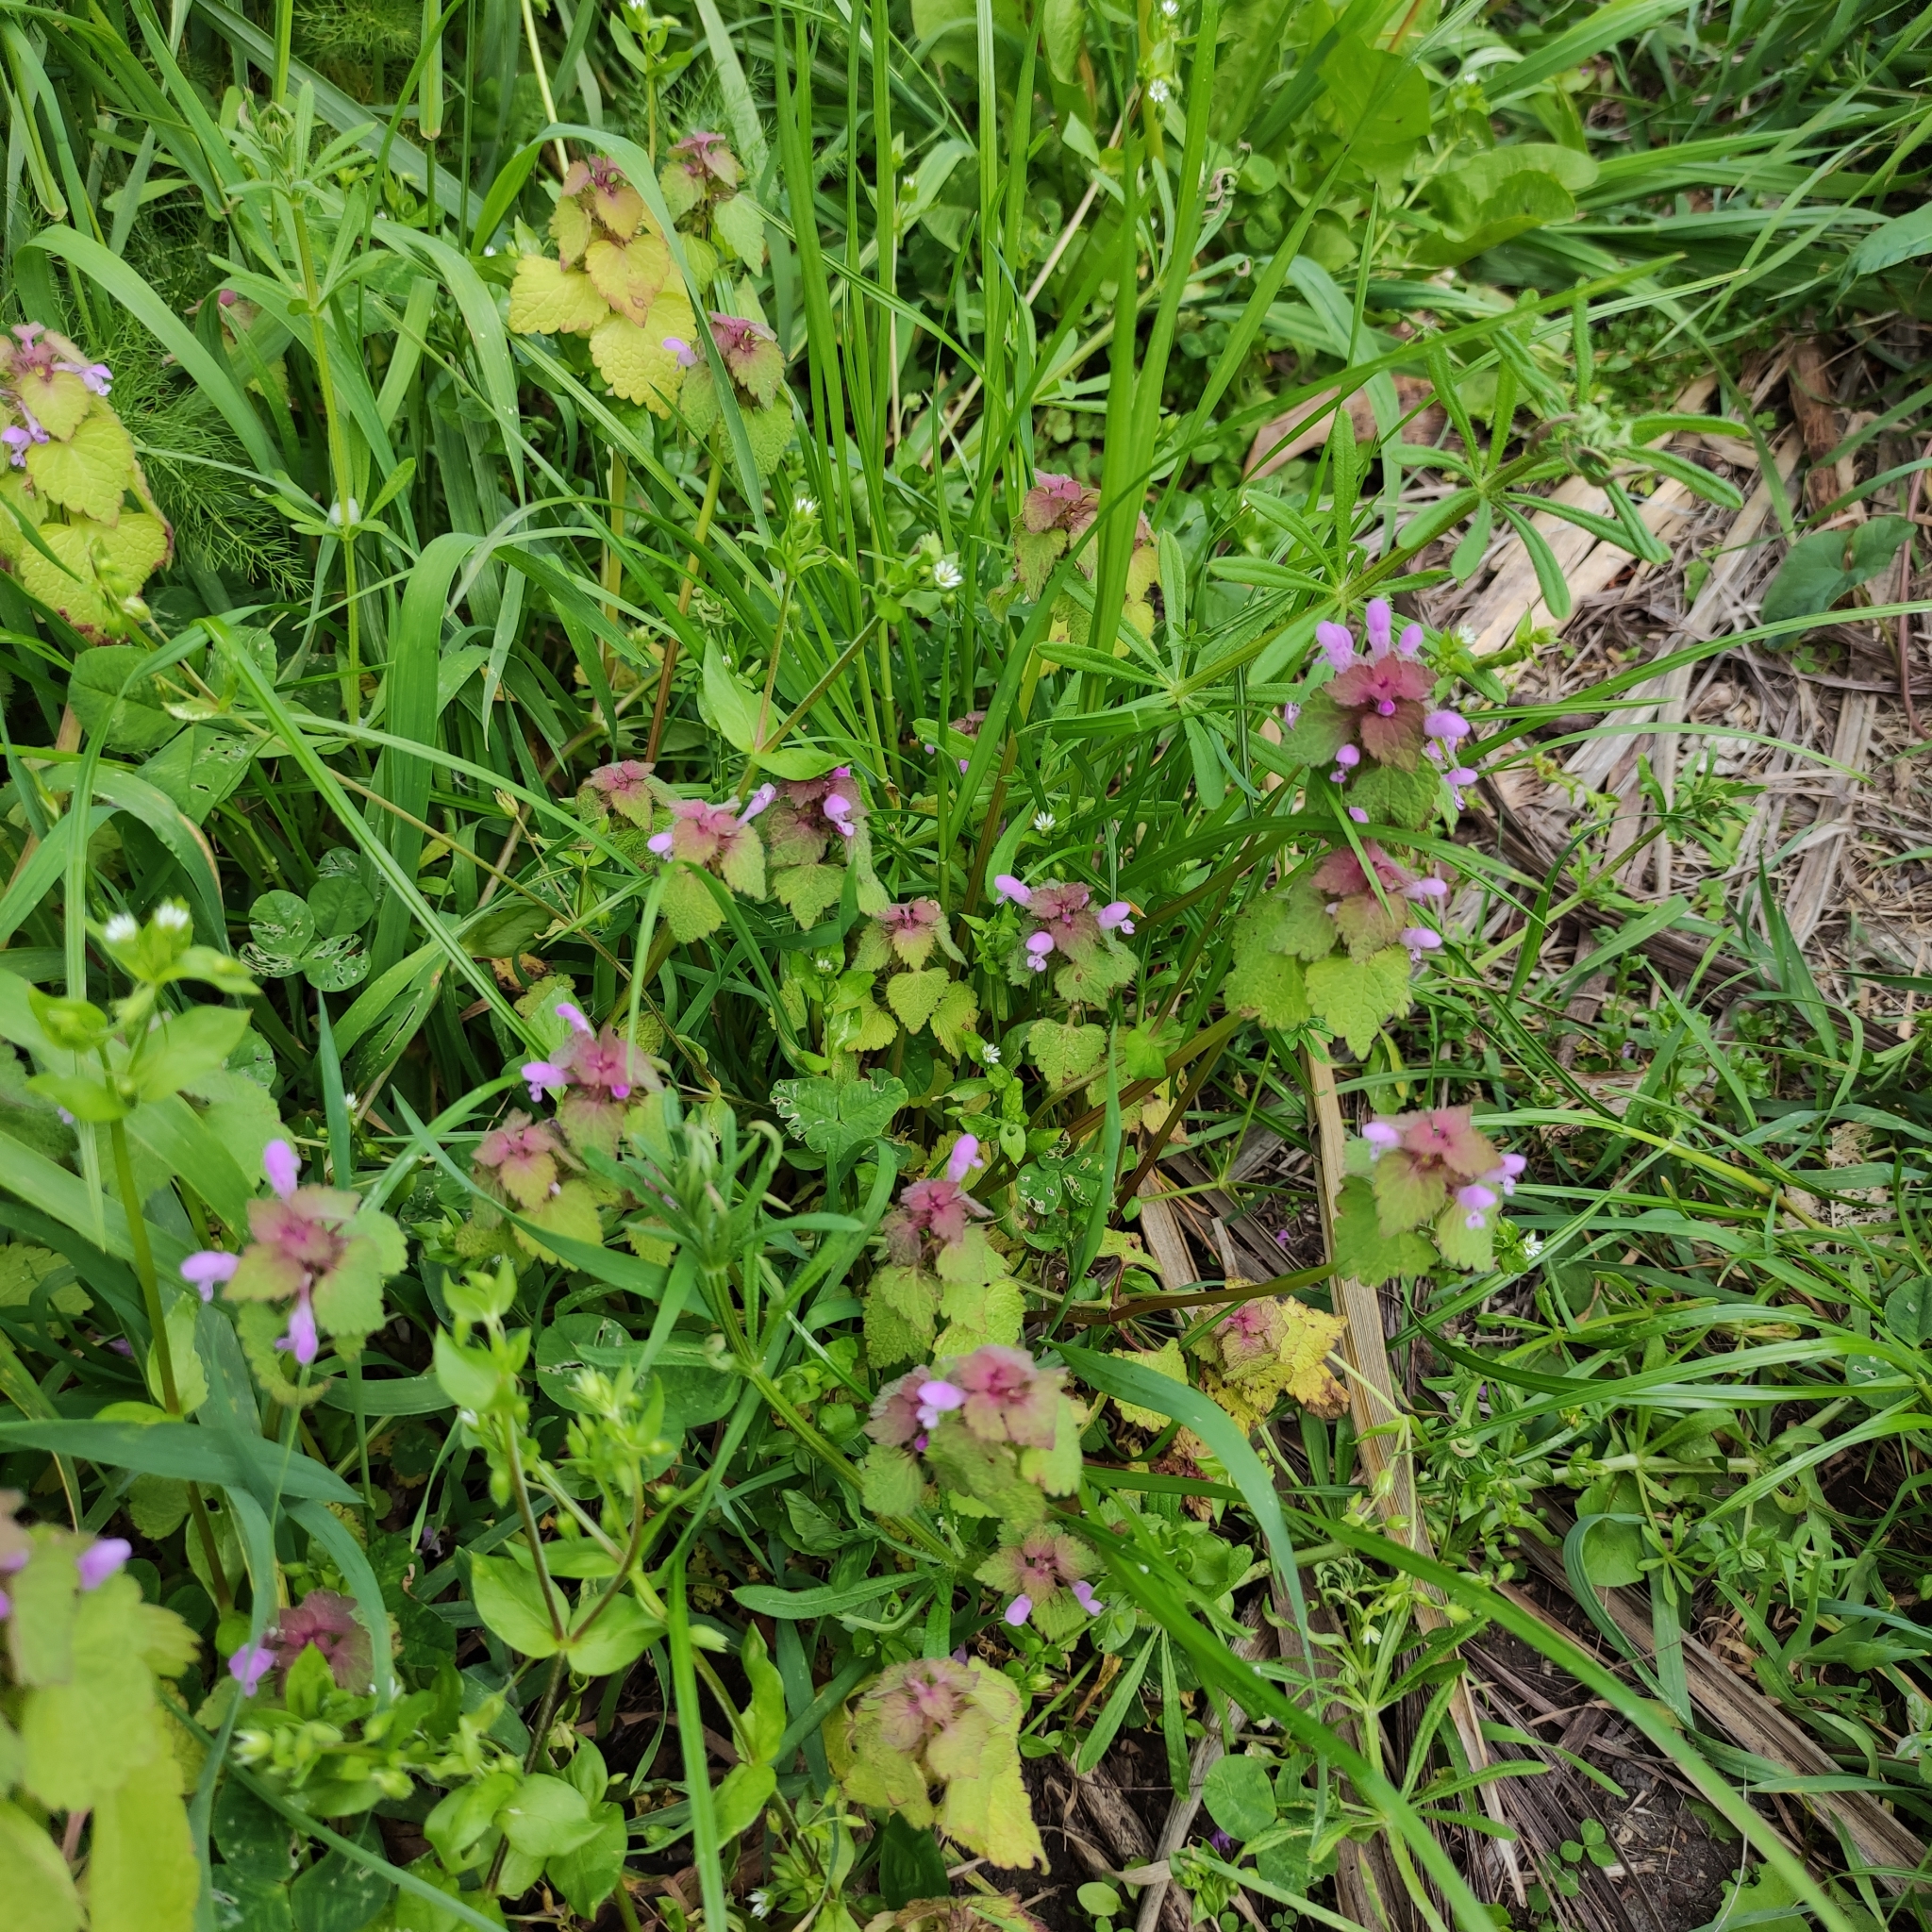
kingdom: Plantae
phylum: Tracheophyta
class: Magnoliopsida
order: Lamiales
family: Lamiaceae
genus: Lamium
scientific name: Lamium purpureum
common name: Red dead-nettle
